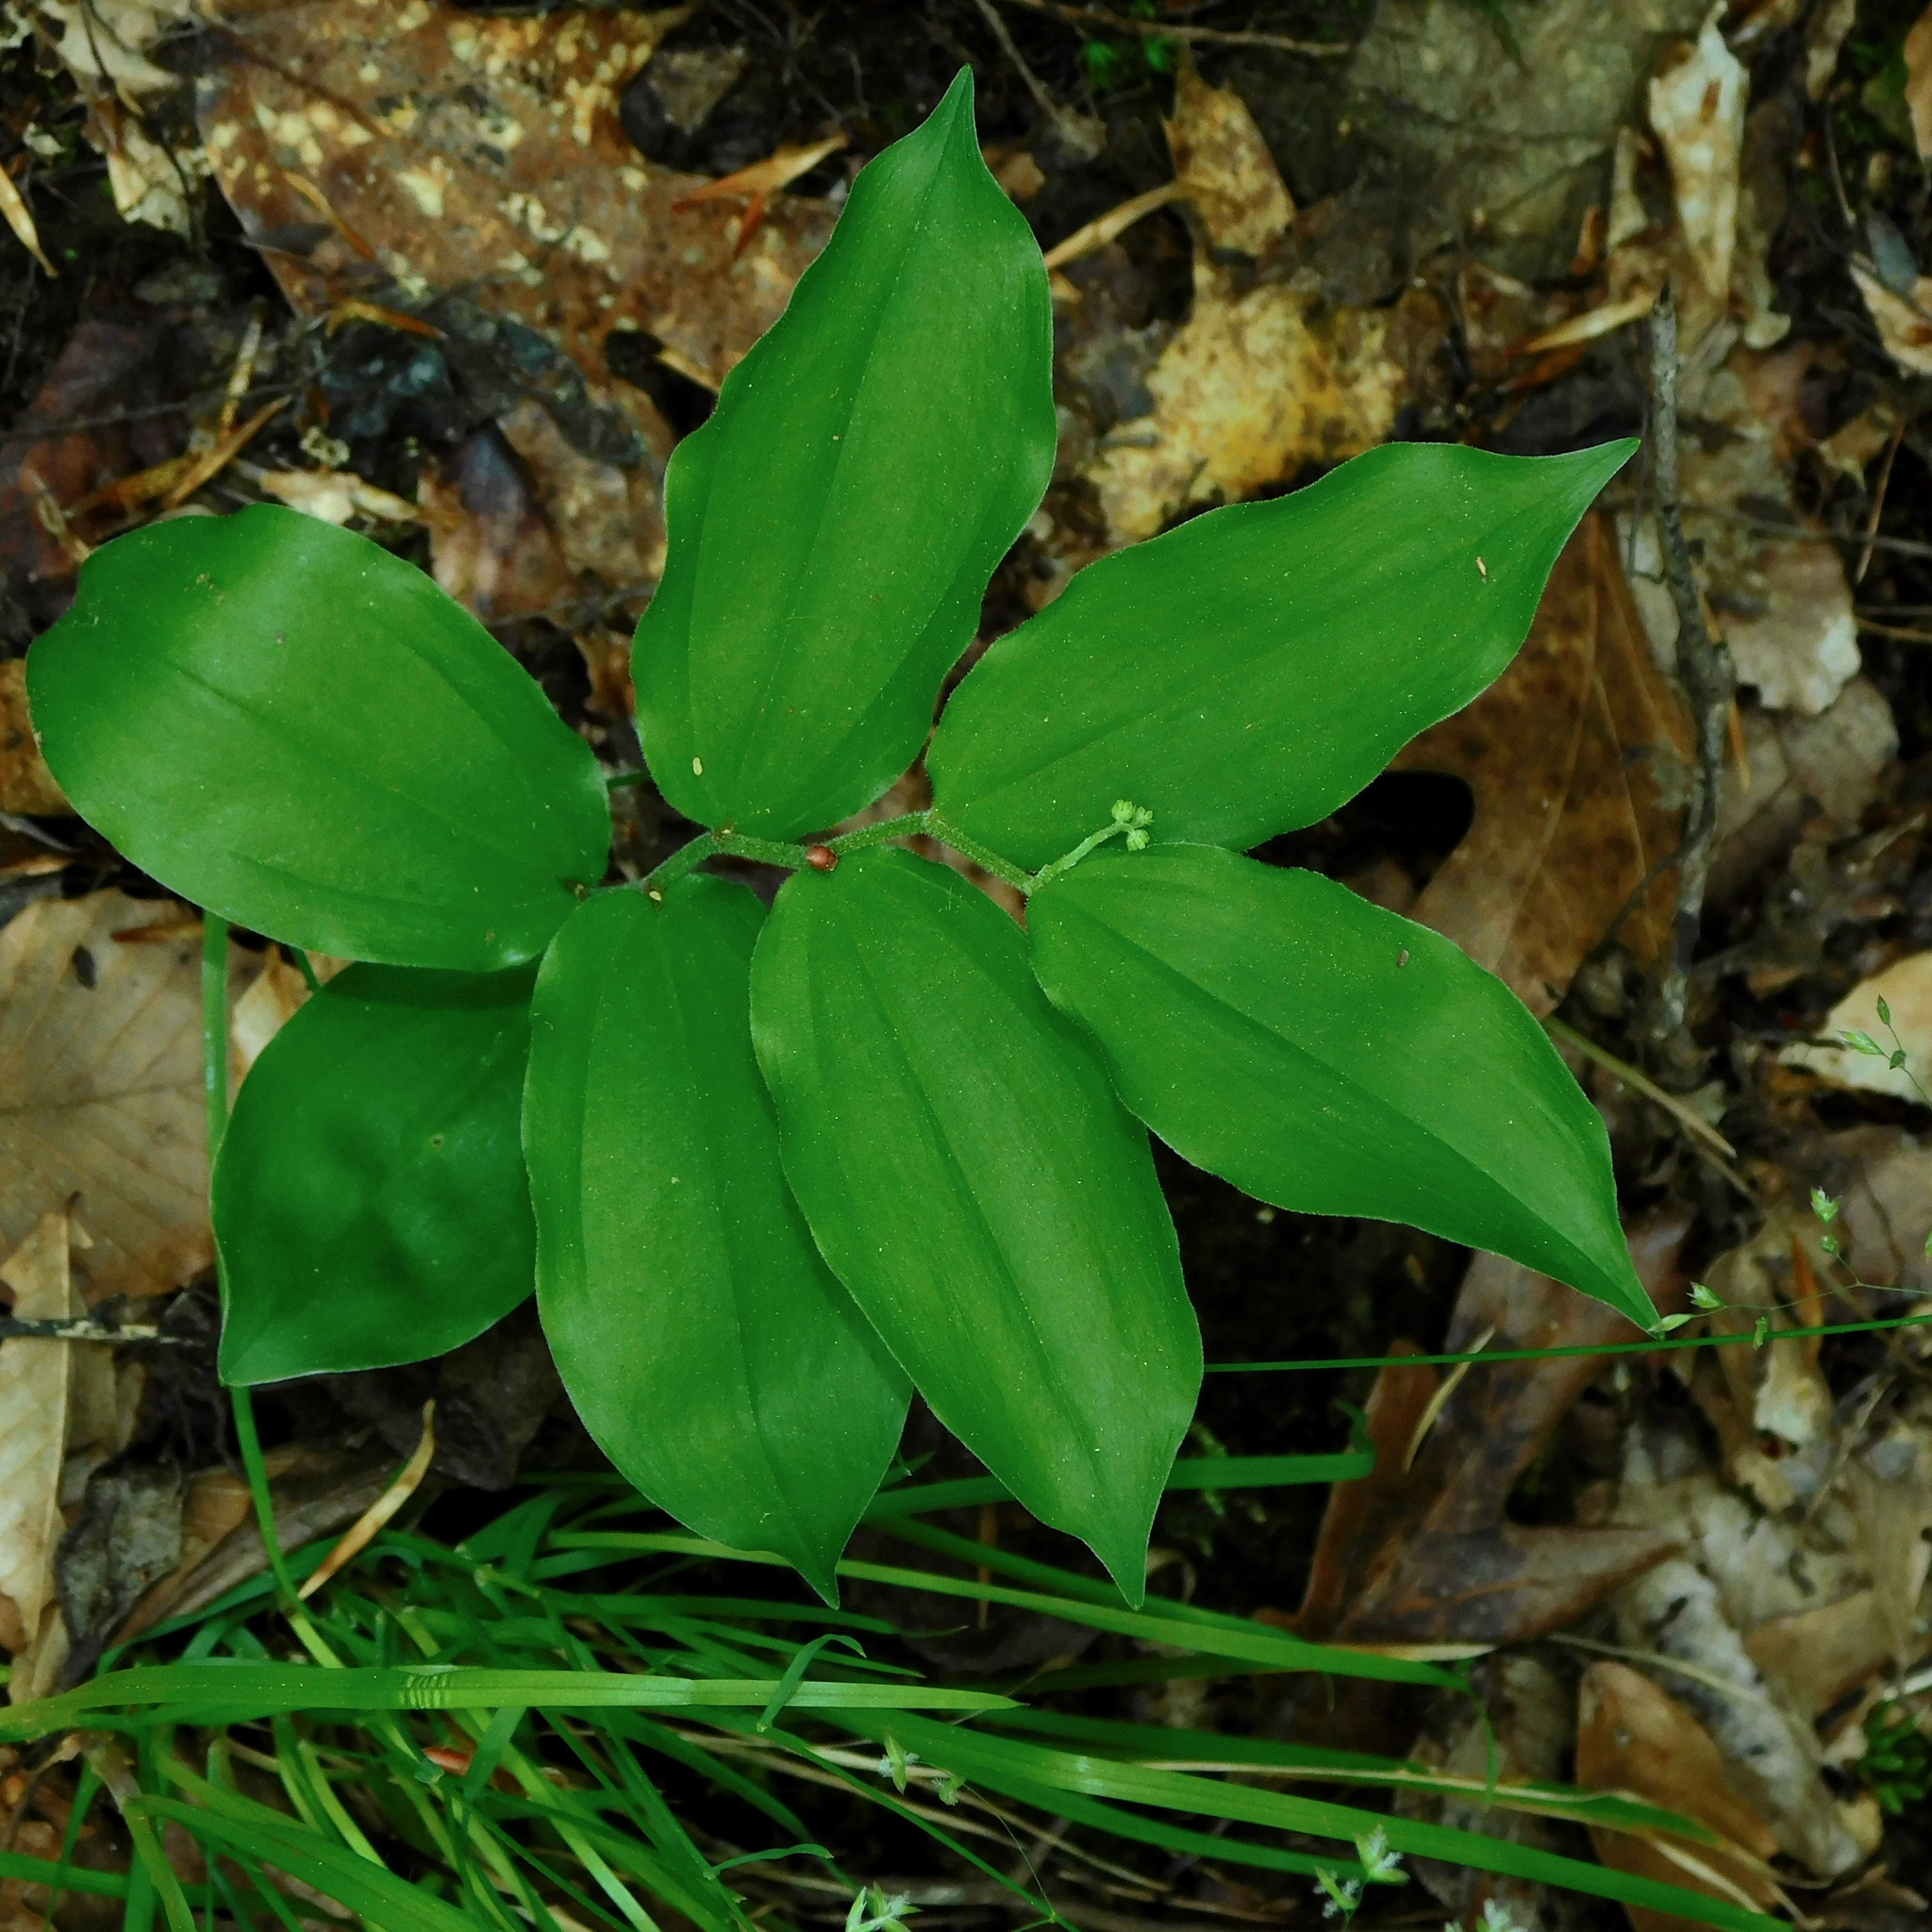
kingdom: Plantae
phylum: Tracheophyta
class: Liliopsida
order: Asparagales
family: Asparagaceae
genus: Maianthemum
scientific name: Maianthemum racemosum
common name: False spikenard
